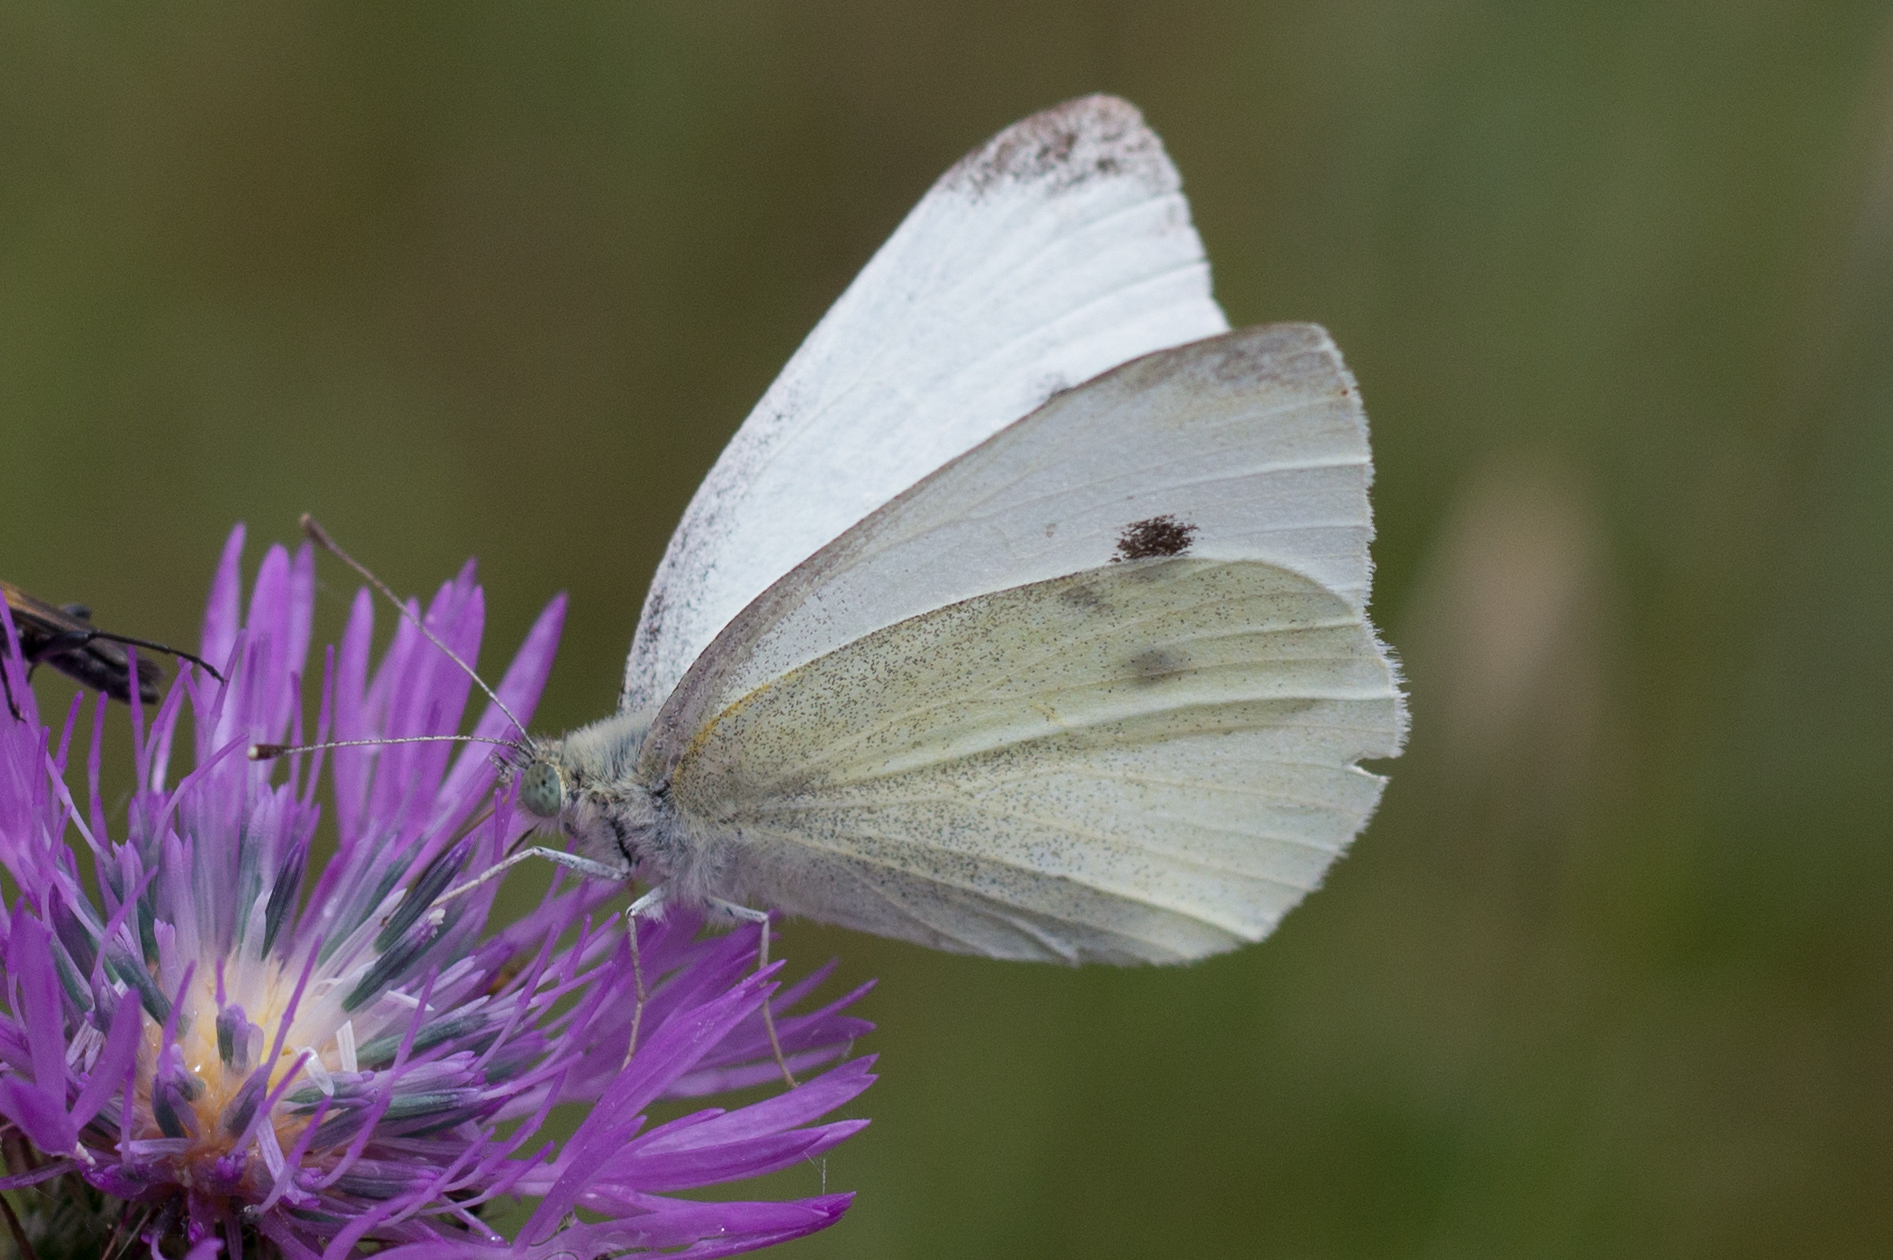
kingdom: Animalia
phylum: Arthropoda
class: Insecta
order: Lepidoptera
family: Pieridae
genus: Pieris
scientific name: Pieris rapae
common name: Small white
